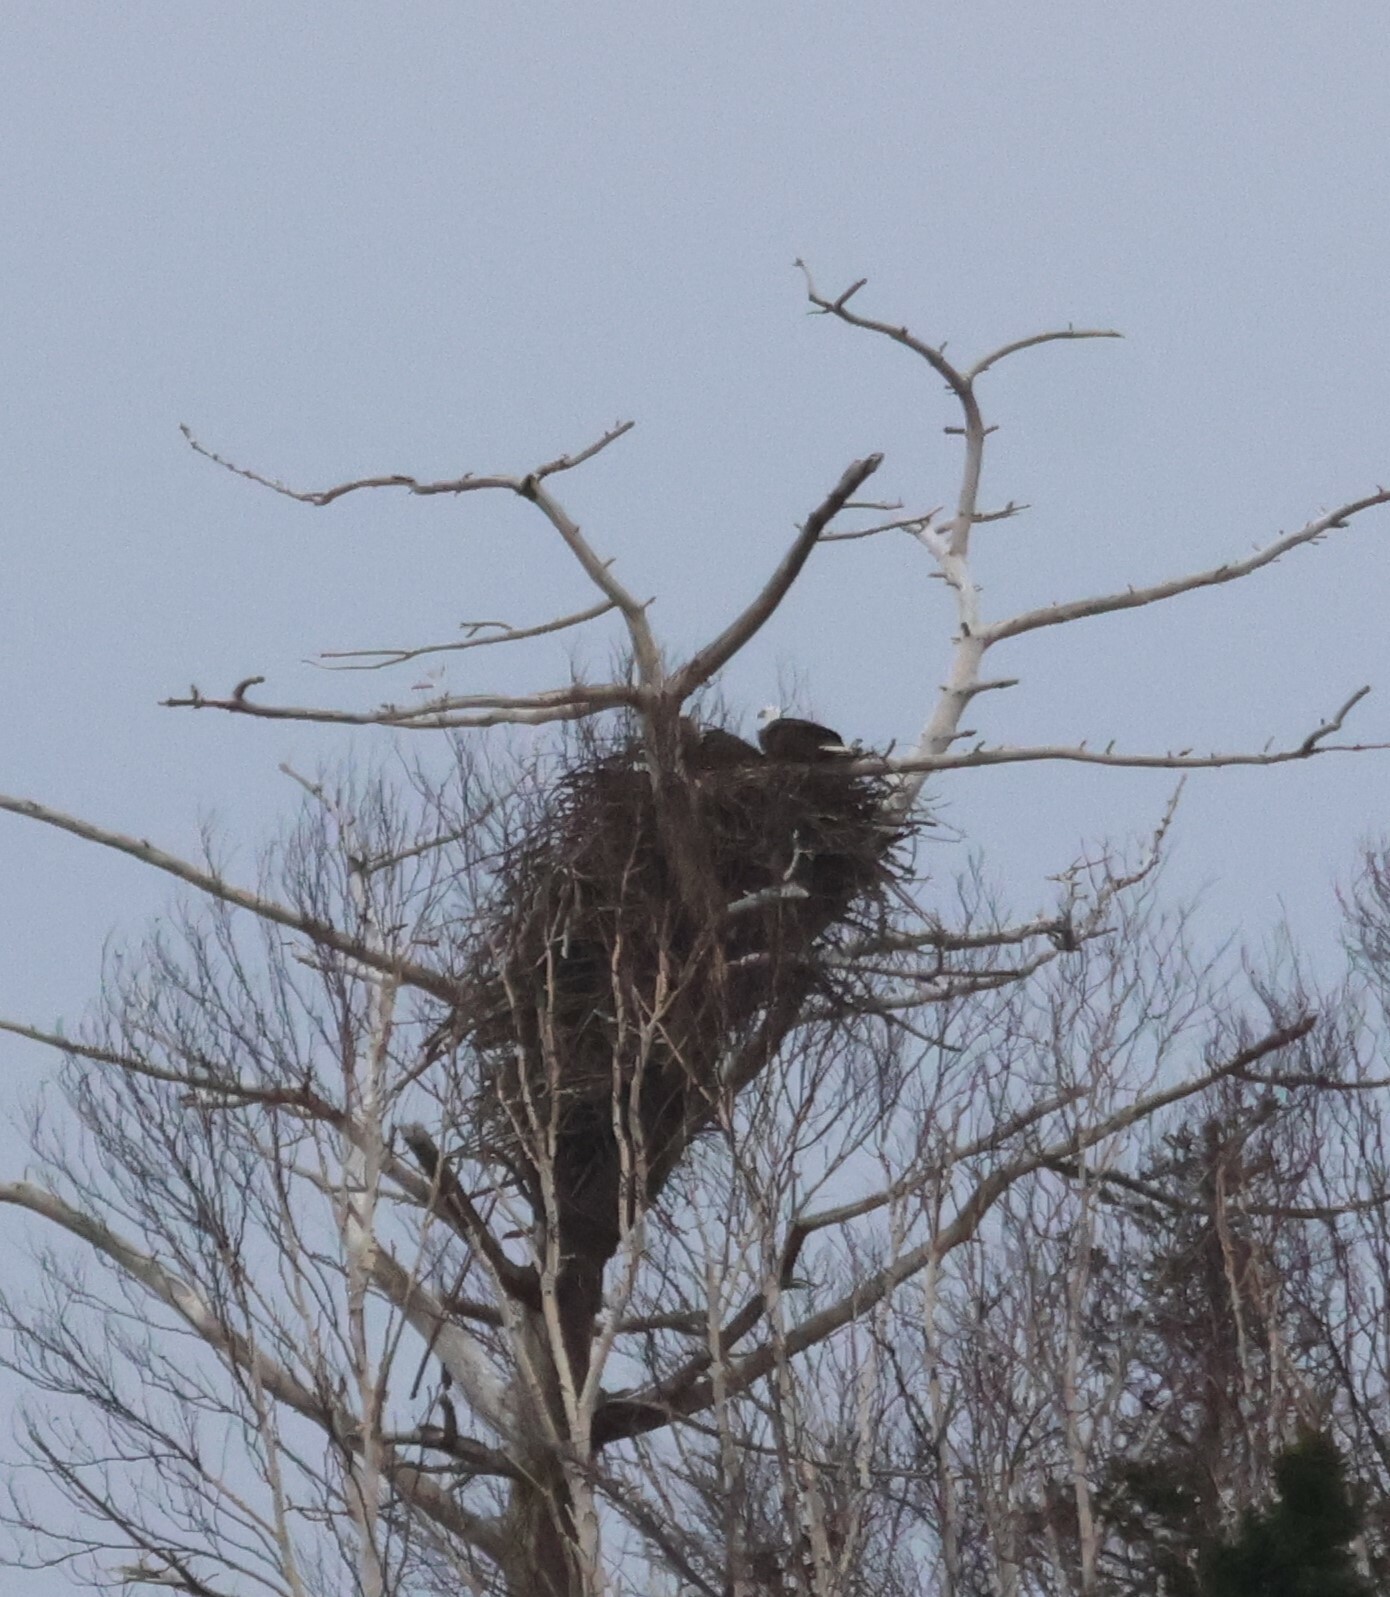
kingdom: Animalia
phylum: Chordata
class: Aves
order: Accipitriformes
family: Accipitridae
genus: Haliaeetus
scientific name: Haliaeetus leucocephalus
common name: Bald eagle
